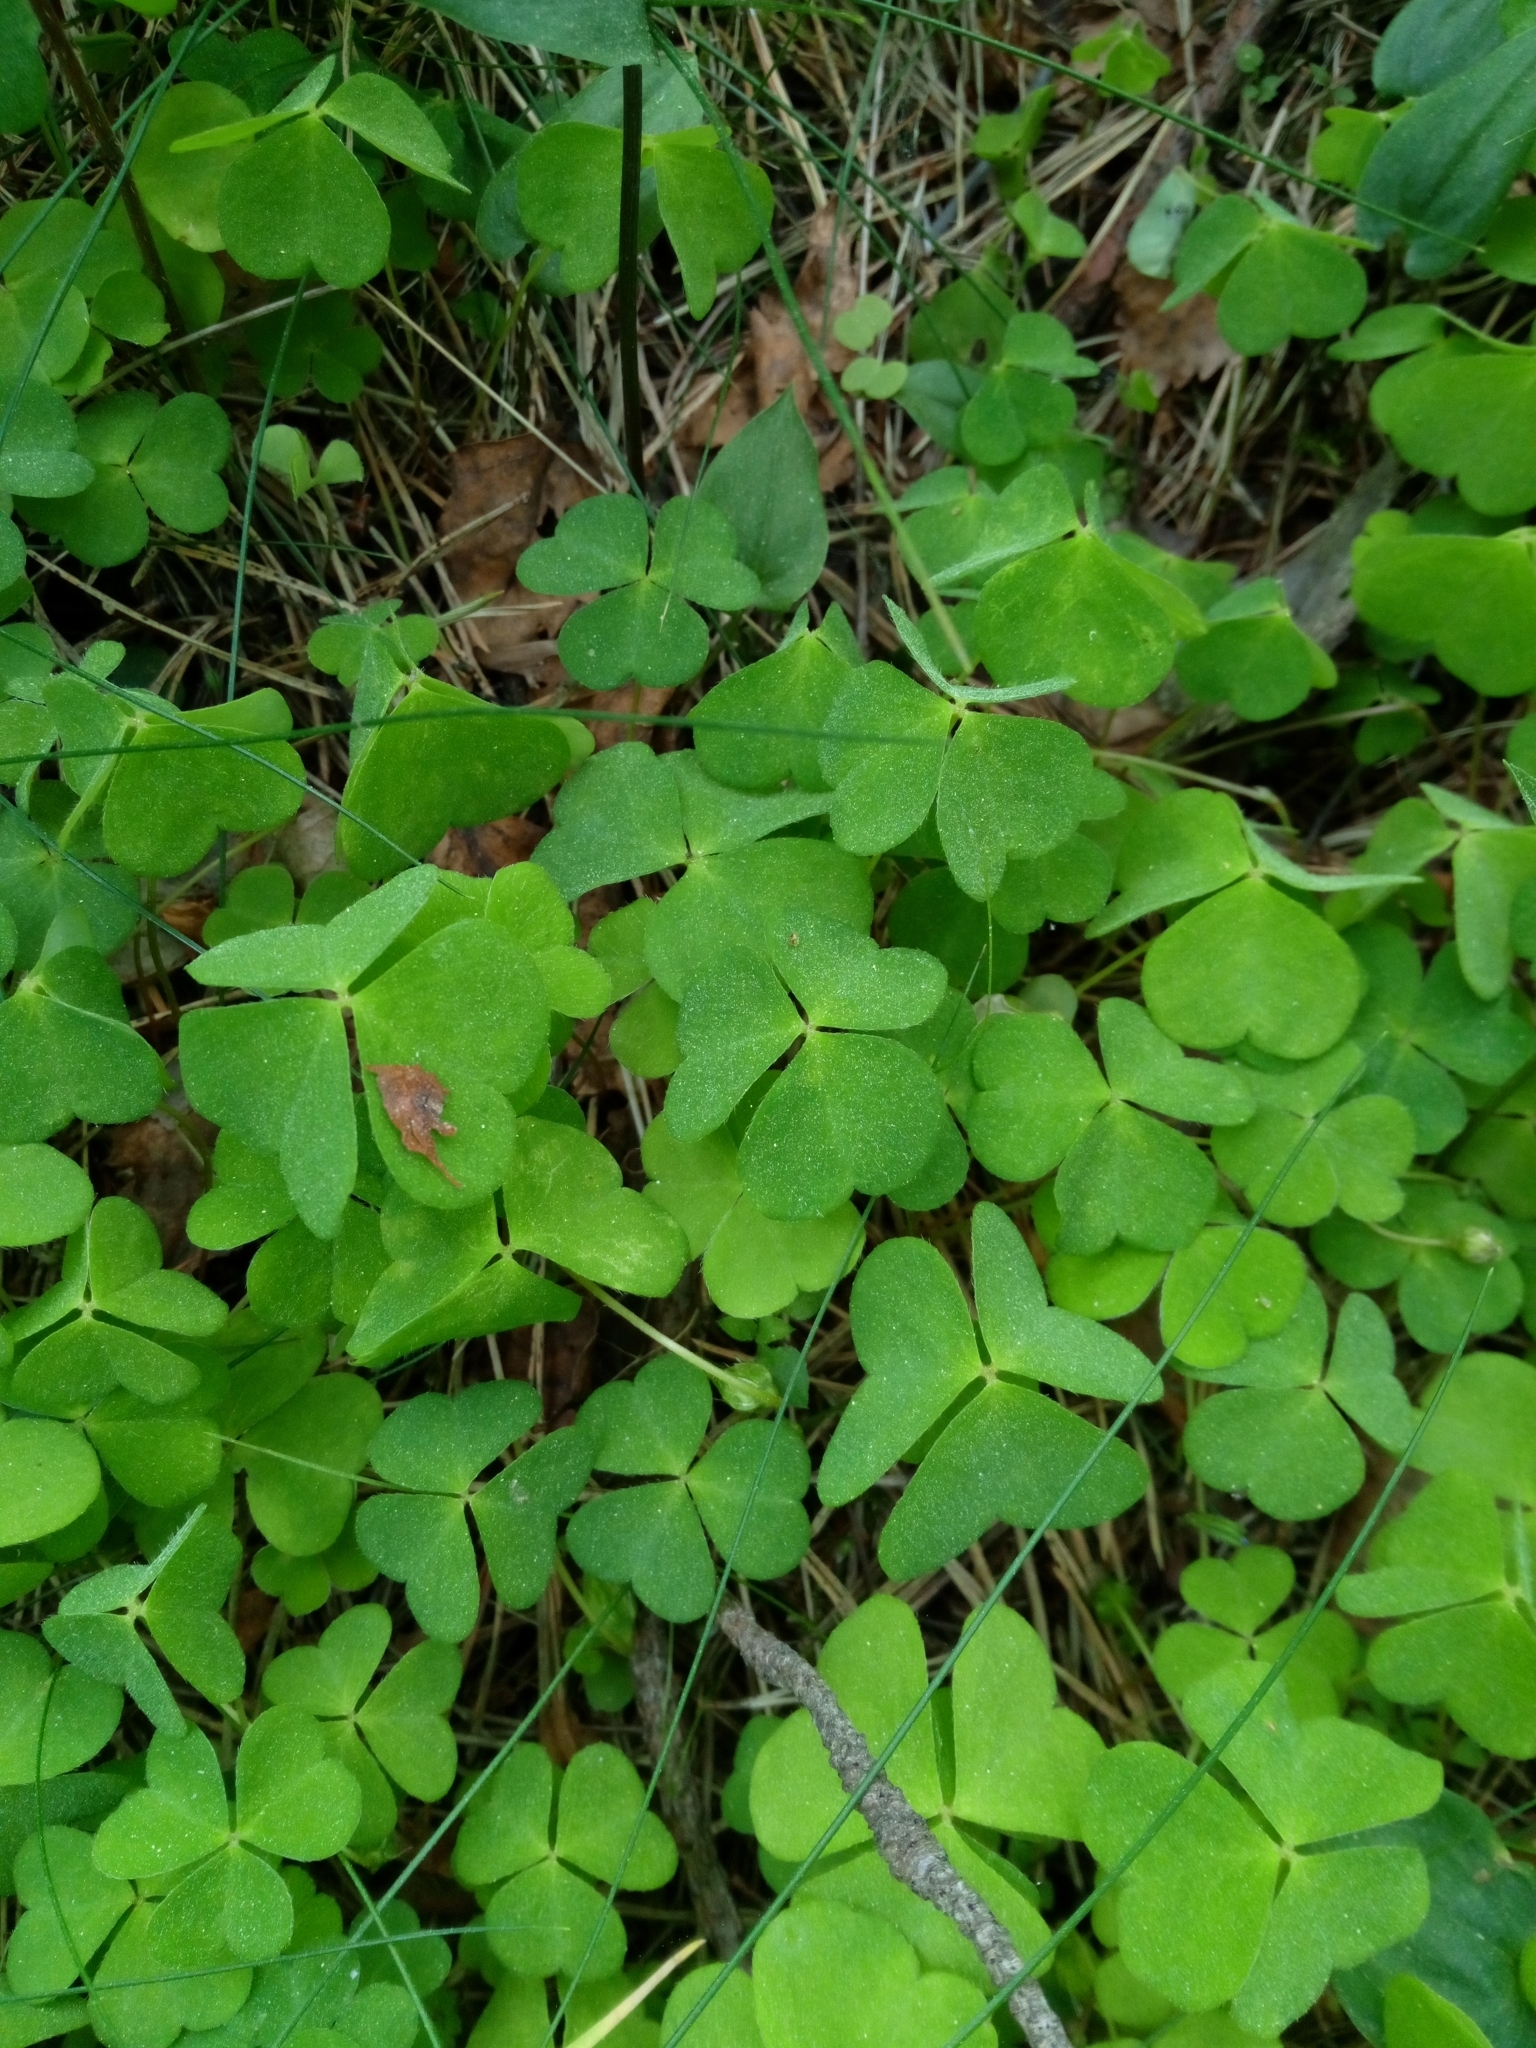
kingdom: Plantae
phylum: Tracheophyta
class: Magnoliopsida
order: Oxalidales
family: Oxalidaceae
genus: Oxalis
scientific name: Oxalis acetosella
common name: Wood-sorrel
